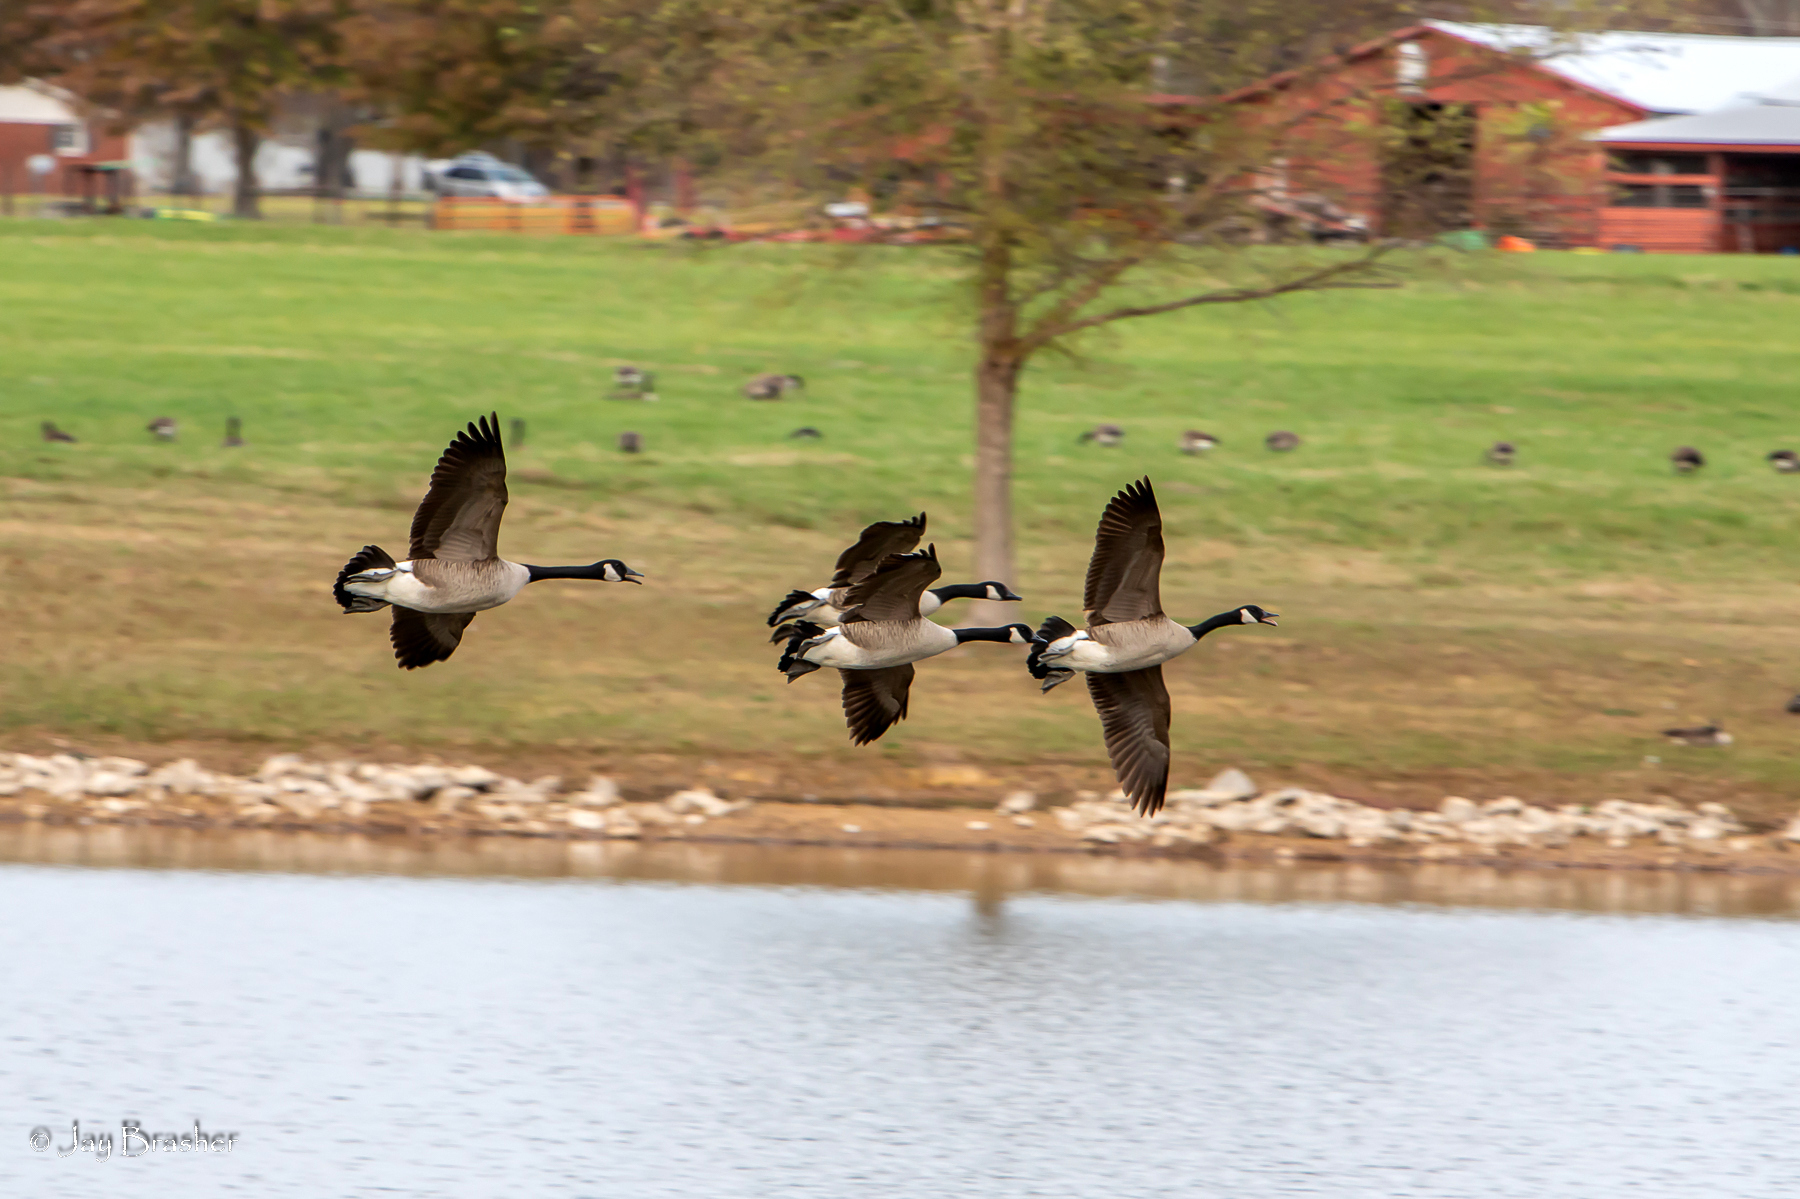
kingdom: Animalia
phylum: Chordata
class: Aves
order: Anseriformes
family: Anatidae
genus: Branta
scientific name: Branta canadensis
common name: Canada goose
